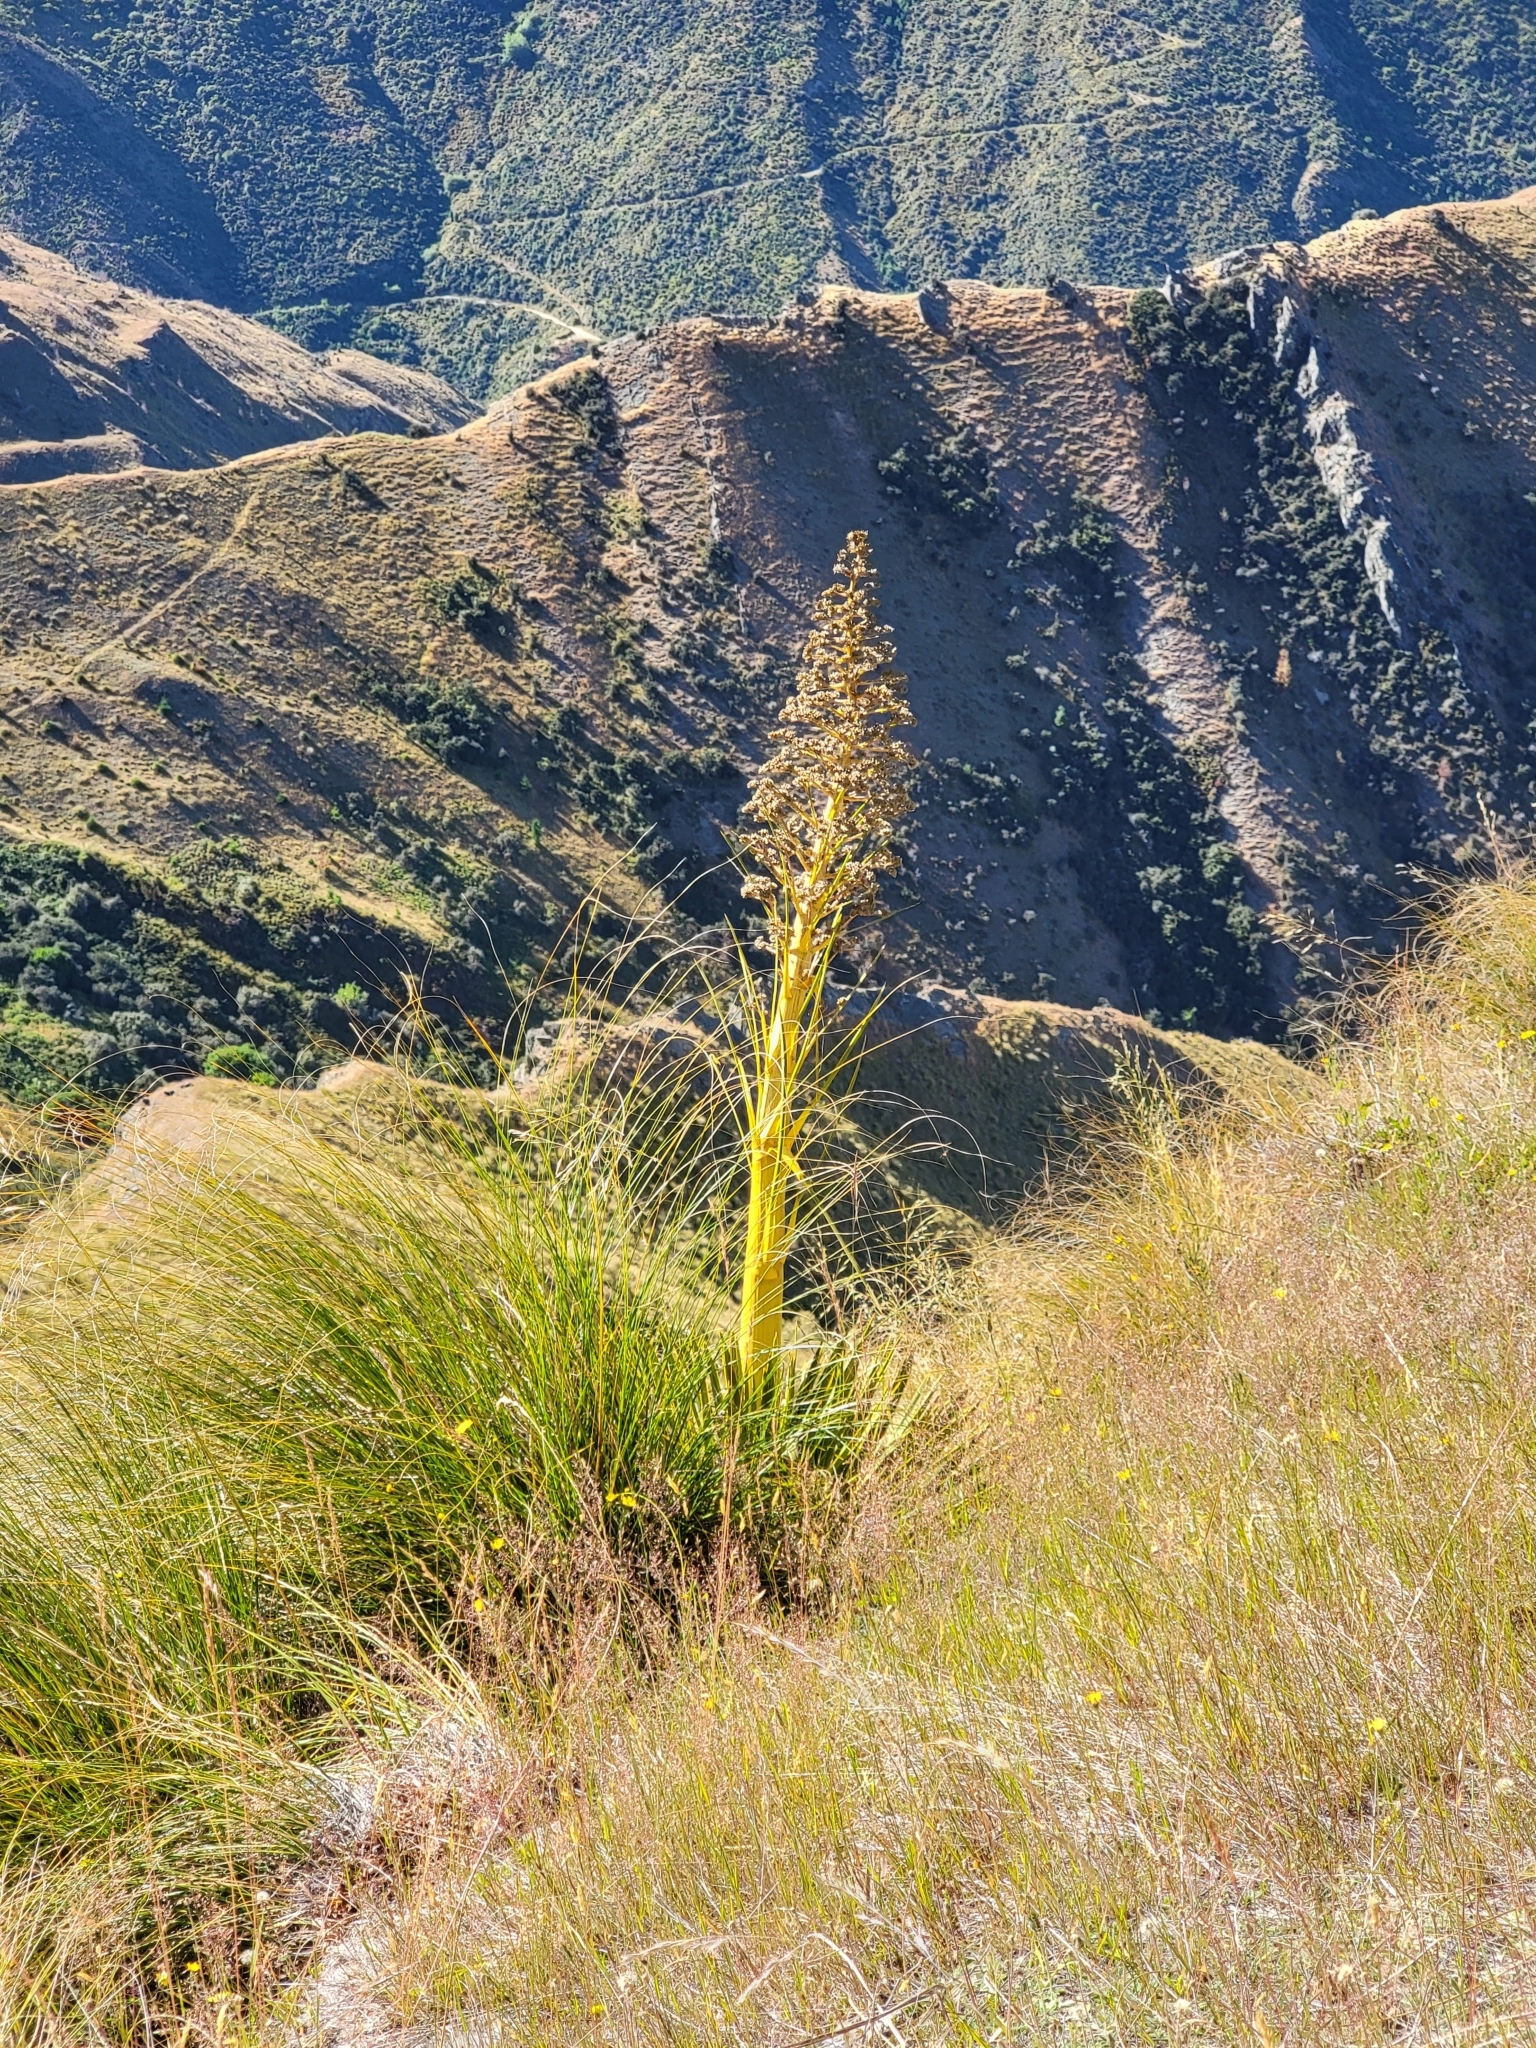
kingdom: Plantae
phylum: Tracheophyta
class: Magnoliopsida
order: Apiales
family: Apiaceae
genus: Aciphylla
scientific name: Aciphylla aurea
